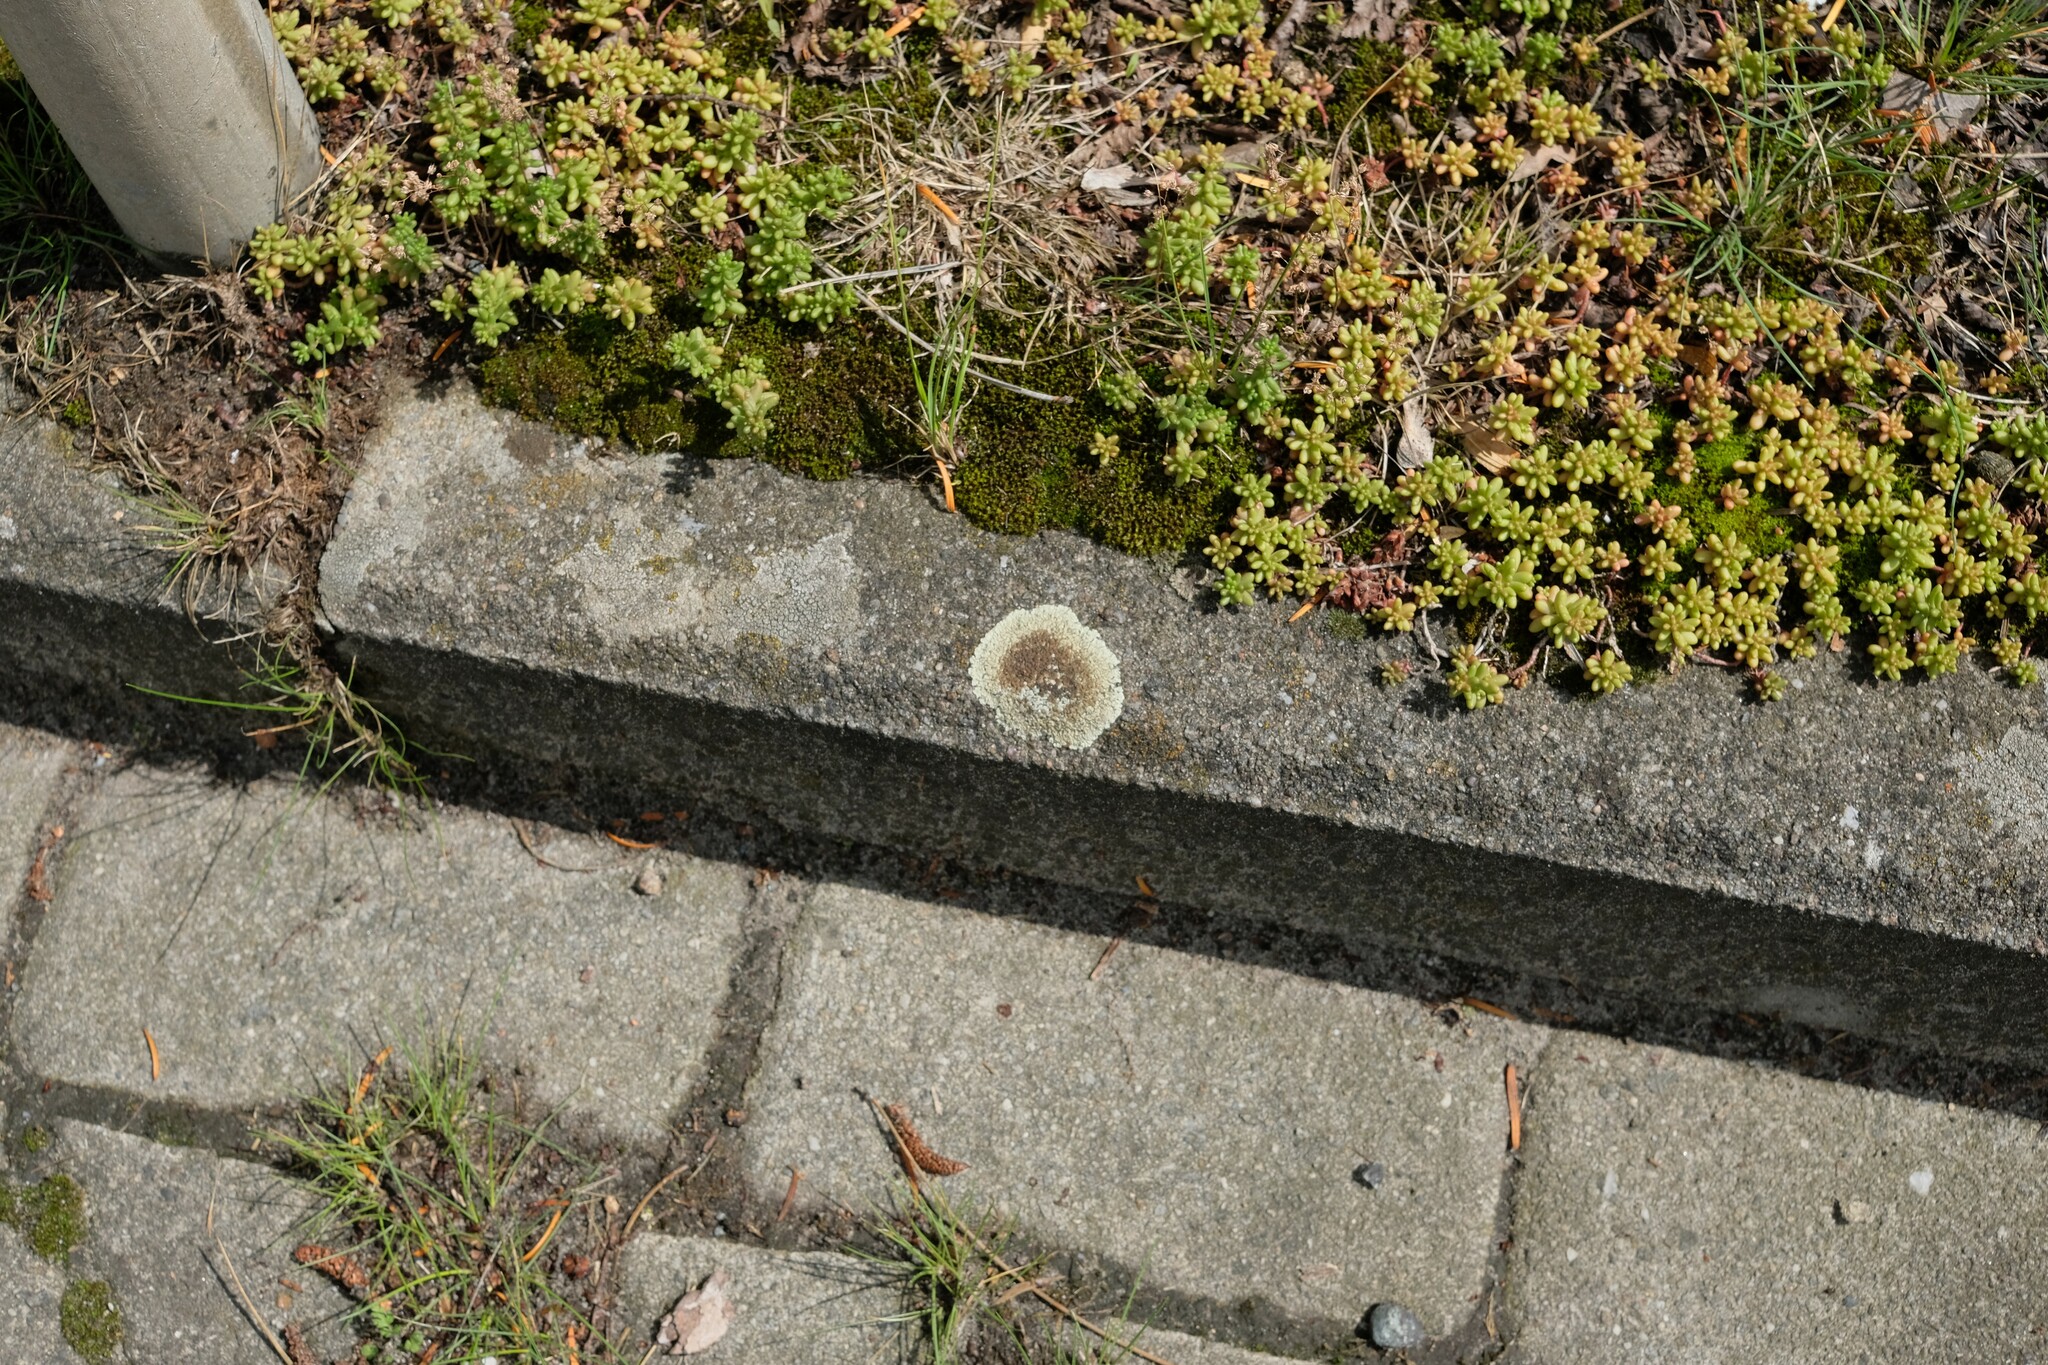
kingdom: Fungi
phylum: Ascomycota
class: Lecanoromycetes
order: Lecanorales
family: Lecanoraceae
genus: Protoparmeliopsis
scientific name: Protoparmeliopsis muralis
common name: Stonewall rim lichen
